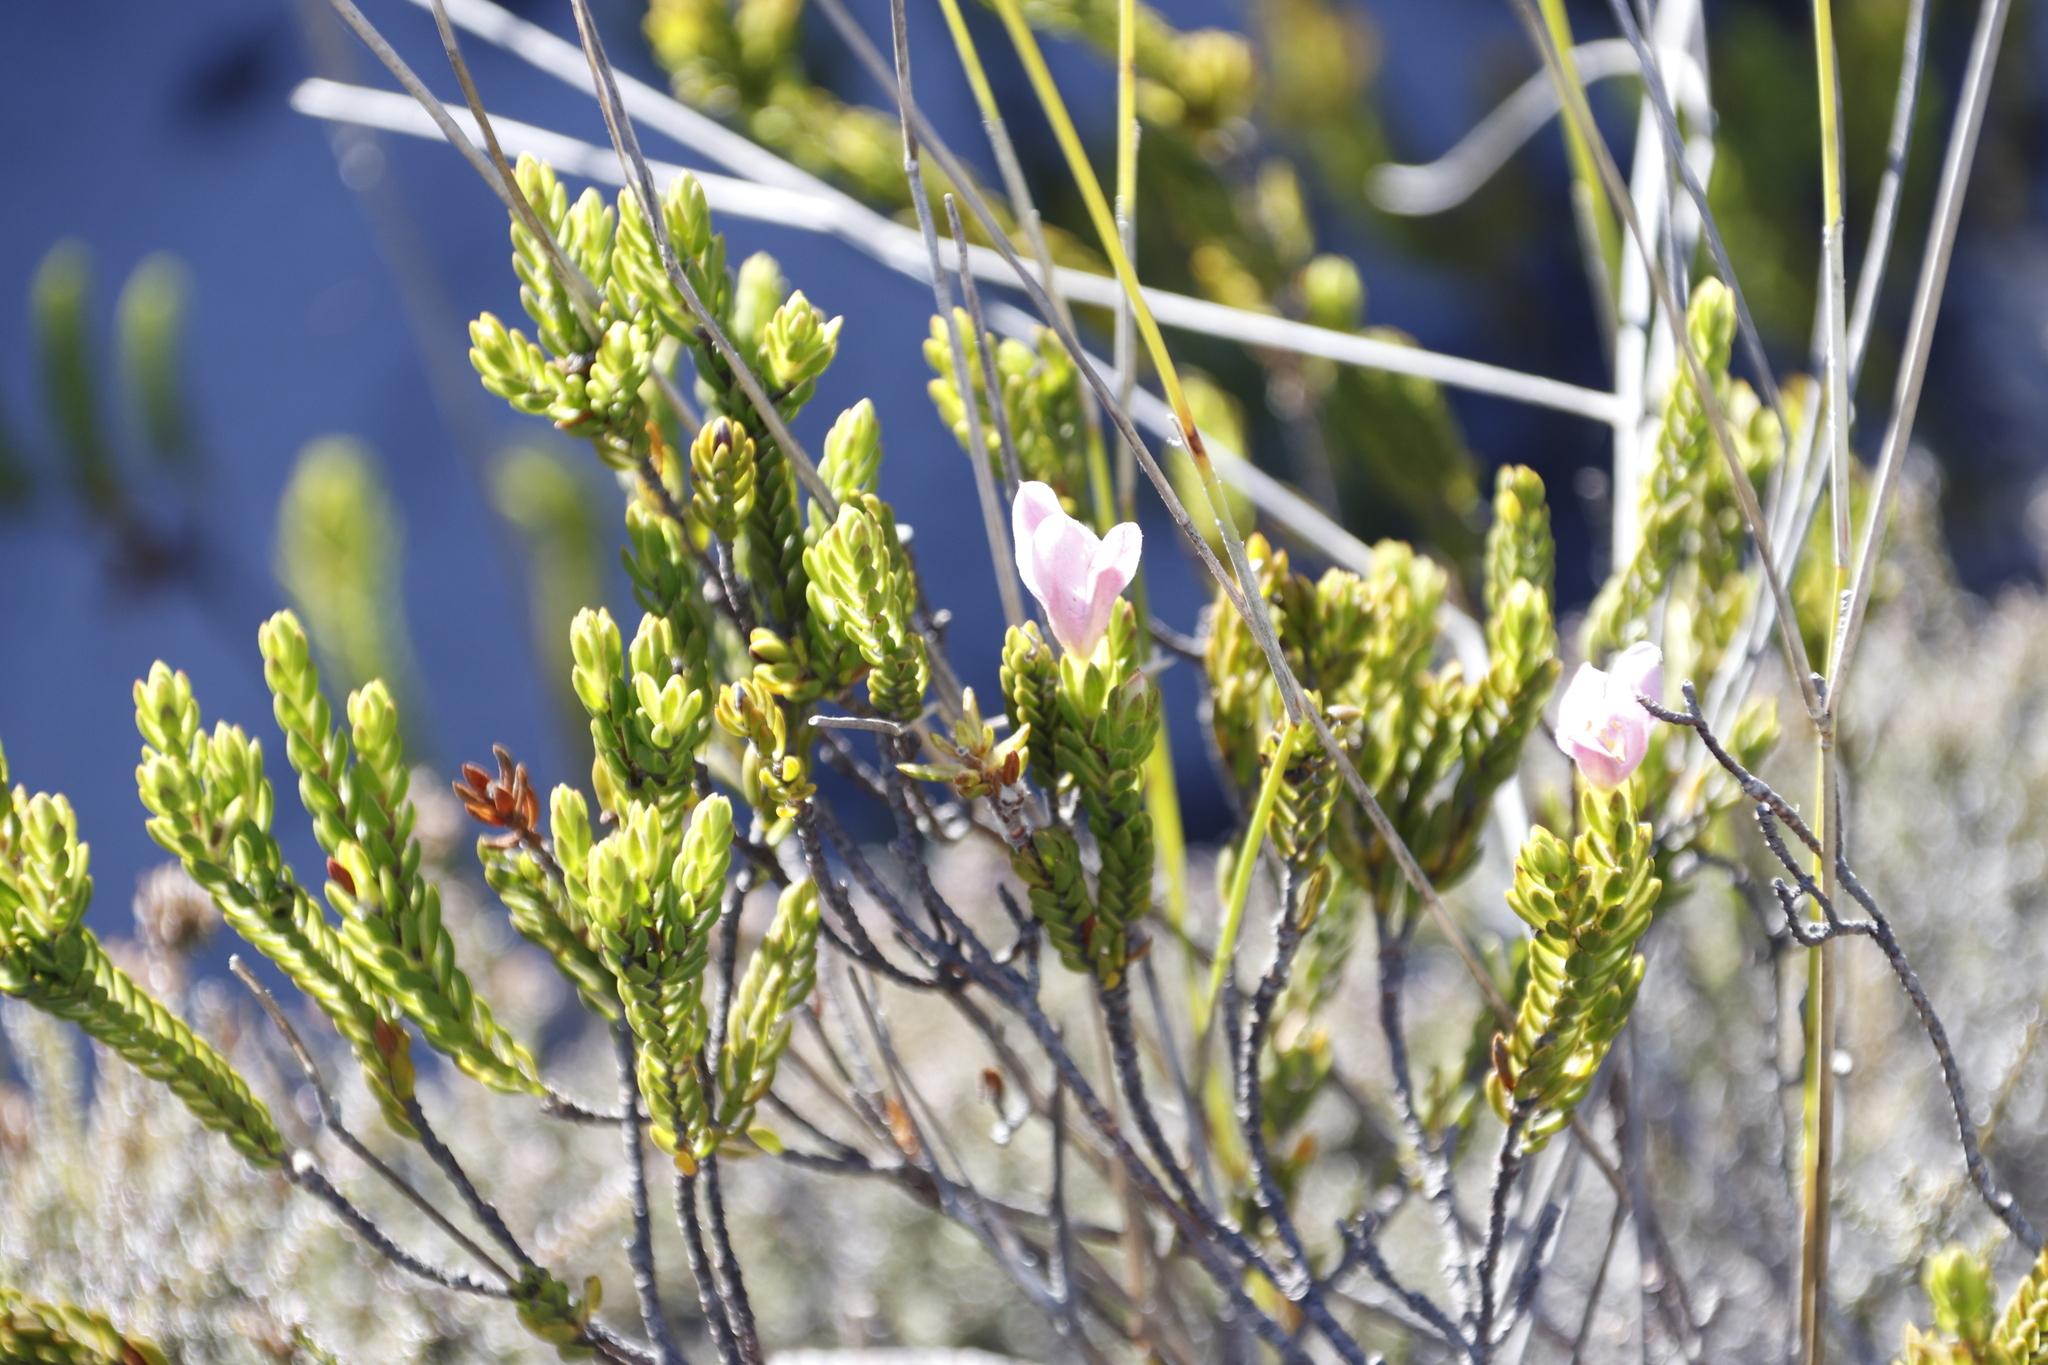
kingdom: Plantae
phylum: Tracheophyta
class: Magnoliopsida
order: Malvales
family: Thymelaeaceae
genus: Lachnaea
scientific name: Lachnaea grandiflora
